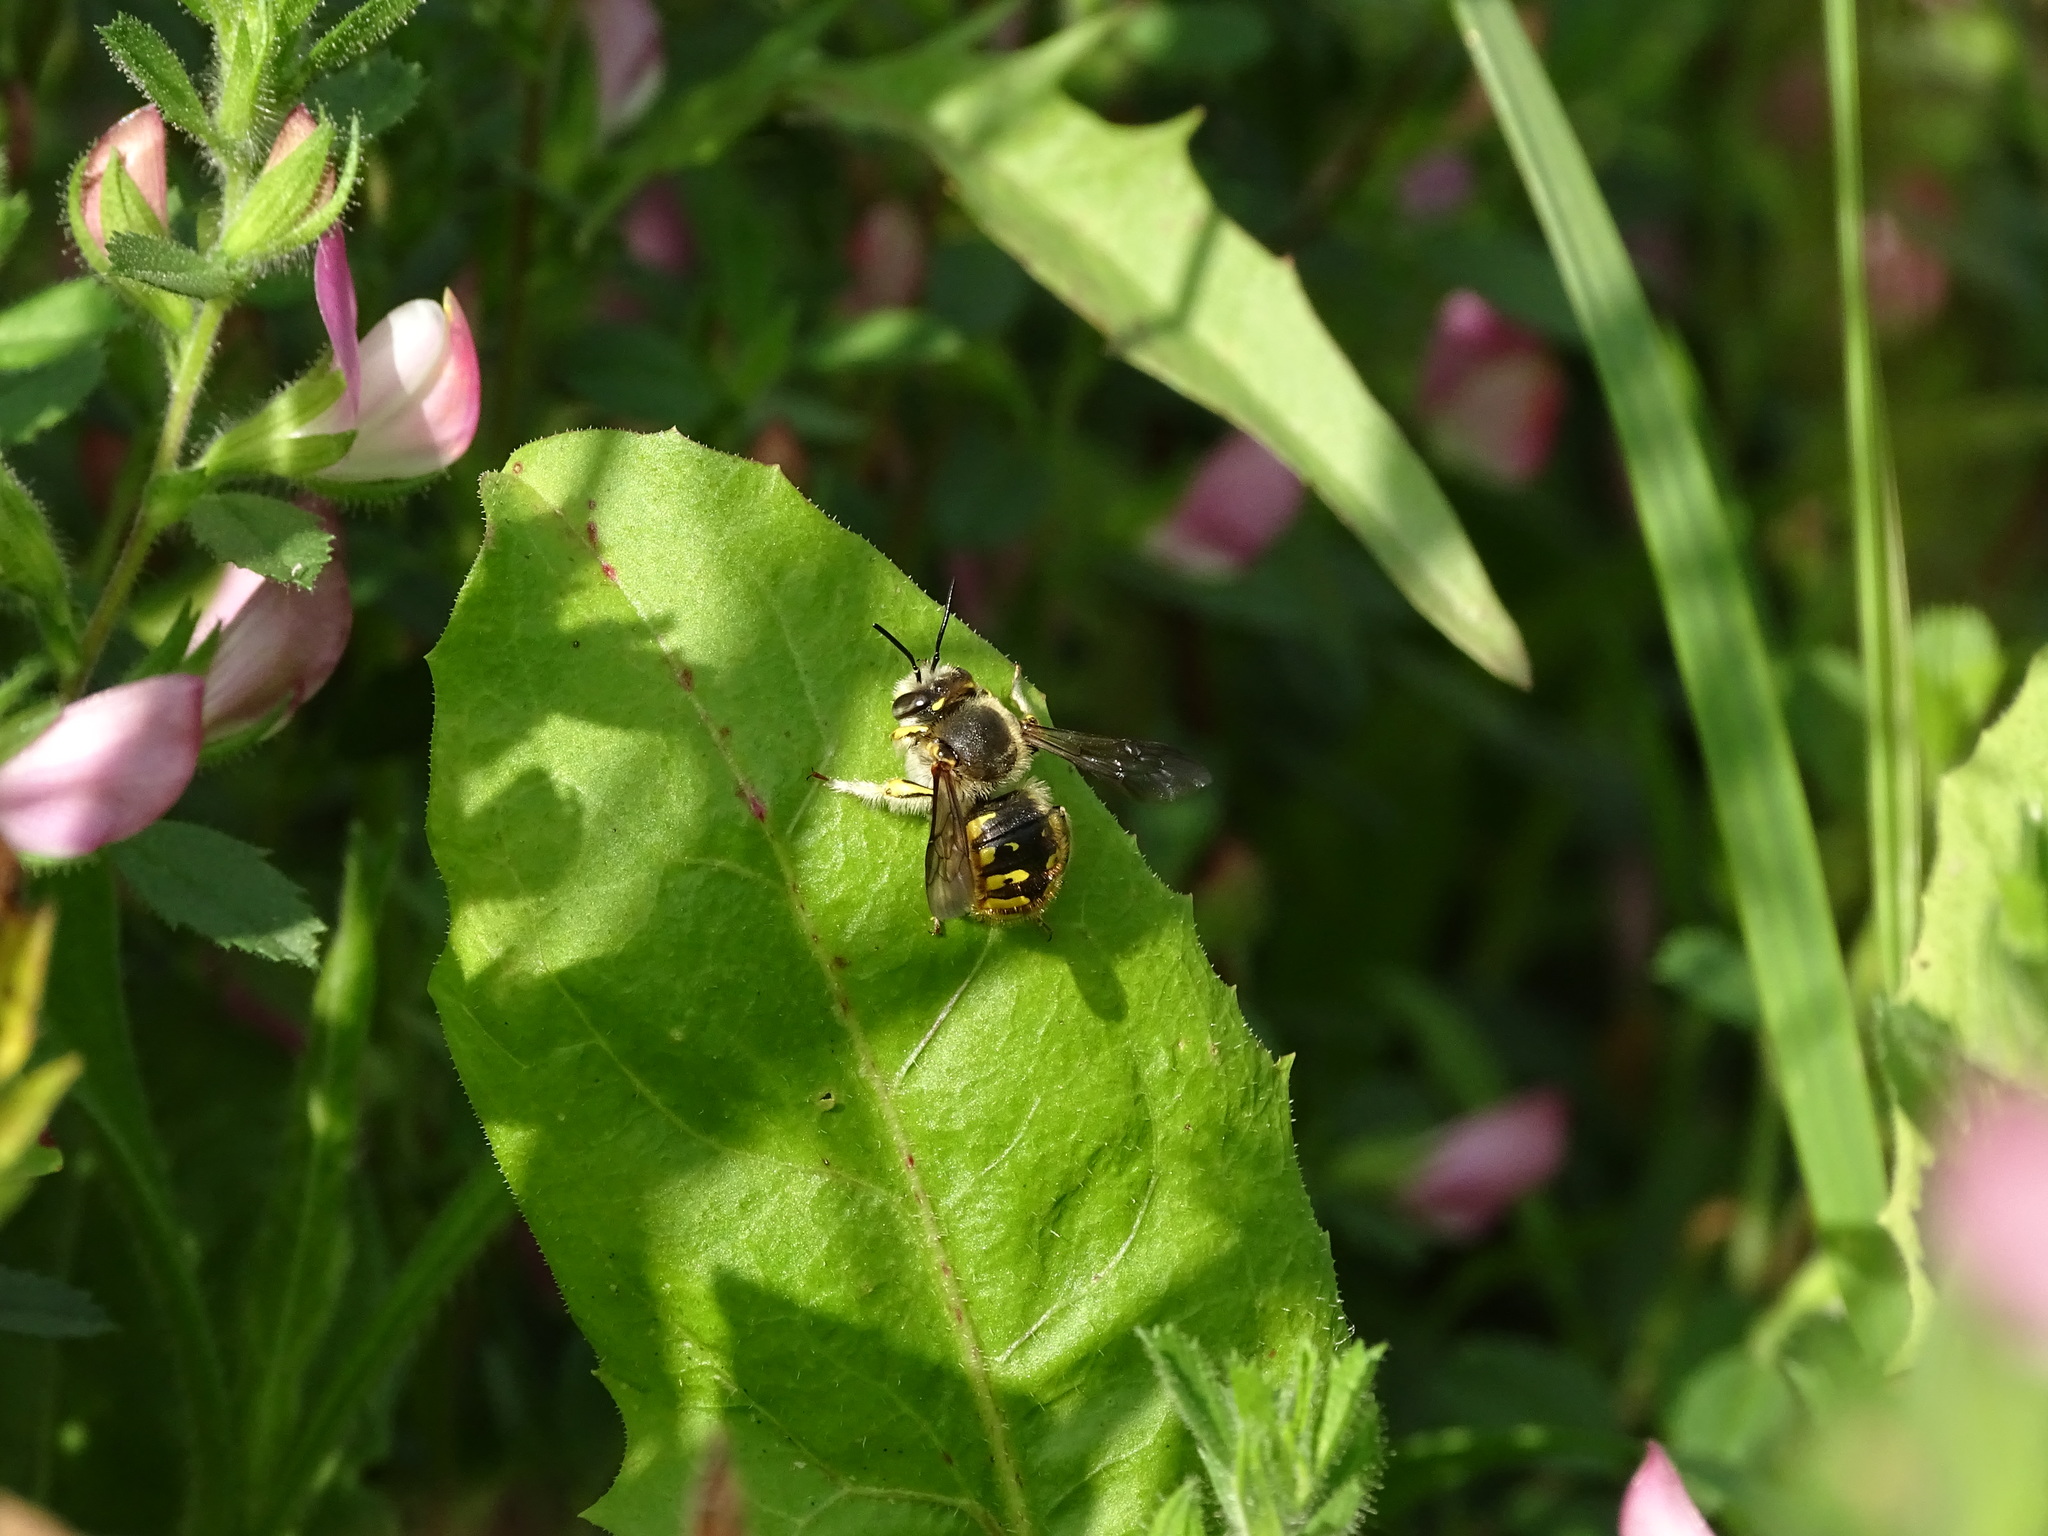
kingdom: Animalia
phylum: Arthropoda
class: Insecta
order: Hymenoptera
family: Megachilidae
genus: Anthidium
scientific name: Anthidium manicatum
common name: Wool carder bee
